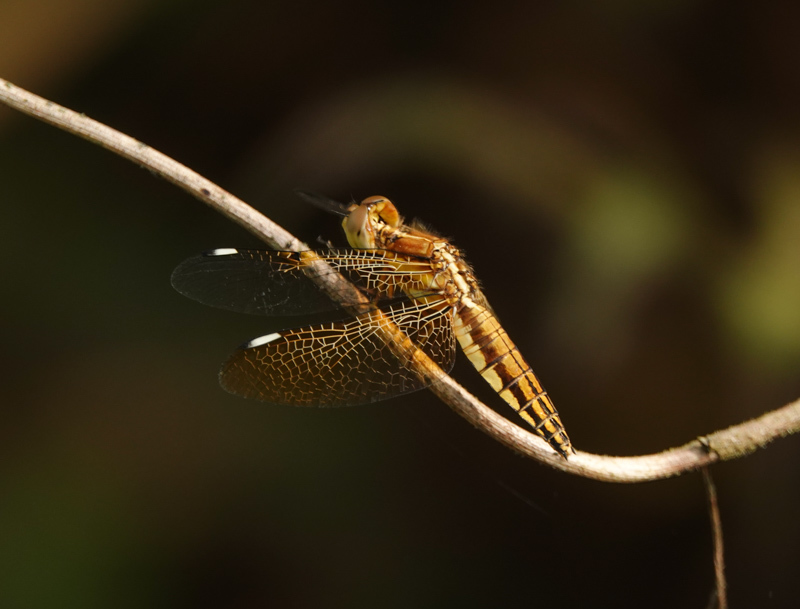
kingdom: Animalia
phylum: Arthropoda
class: Insecta
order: Odonata
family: Libellulidae
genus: Palpopleura
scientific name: Palpopleura sexmaculata
